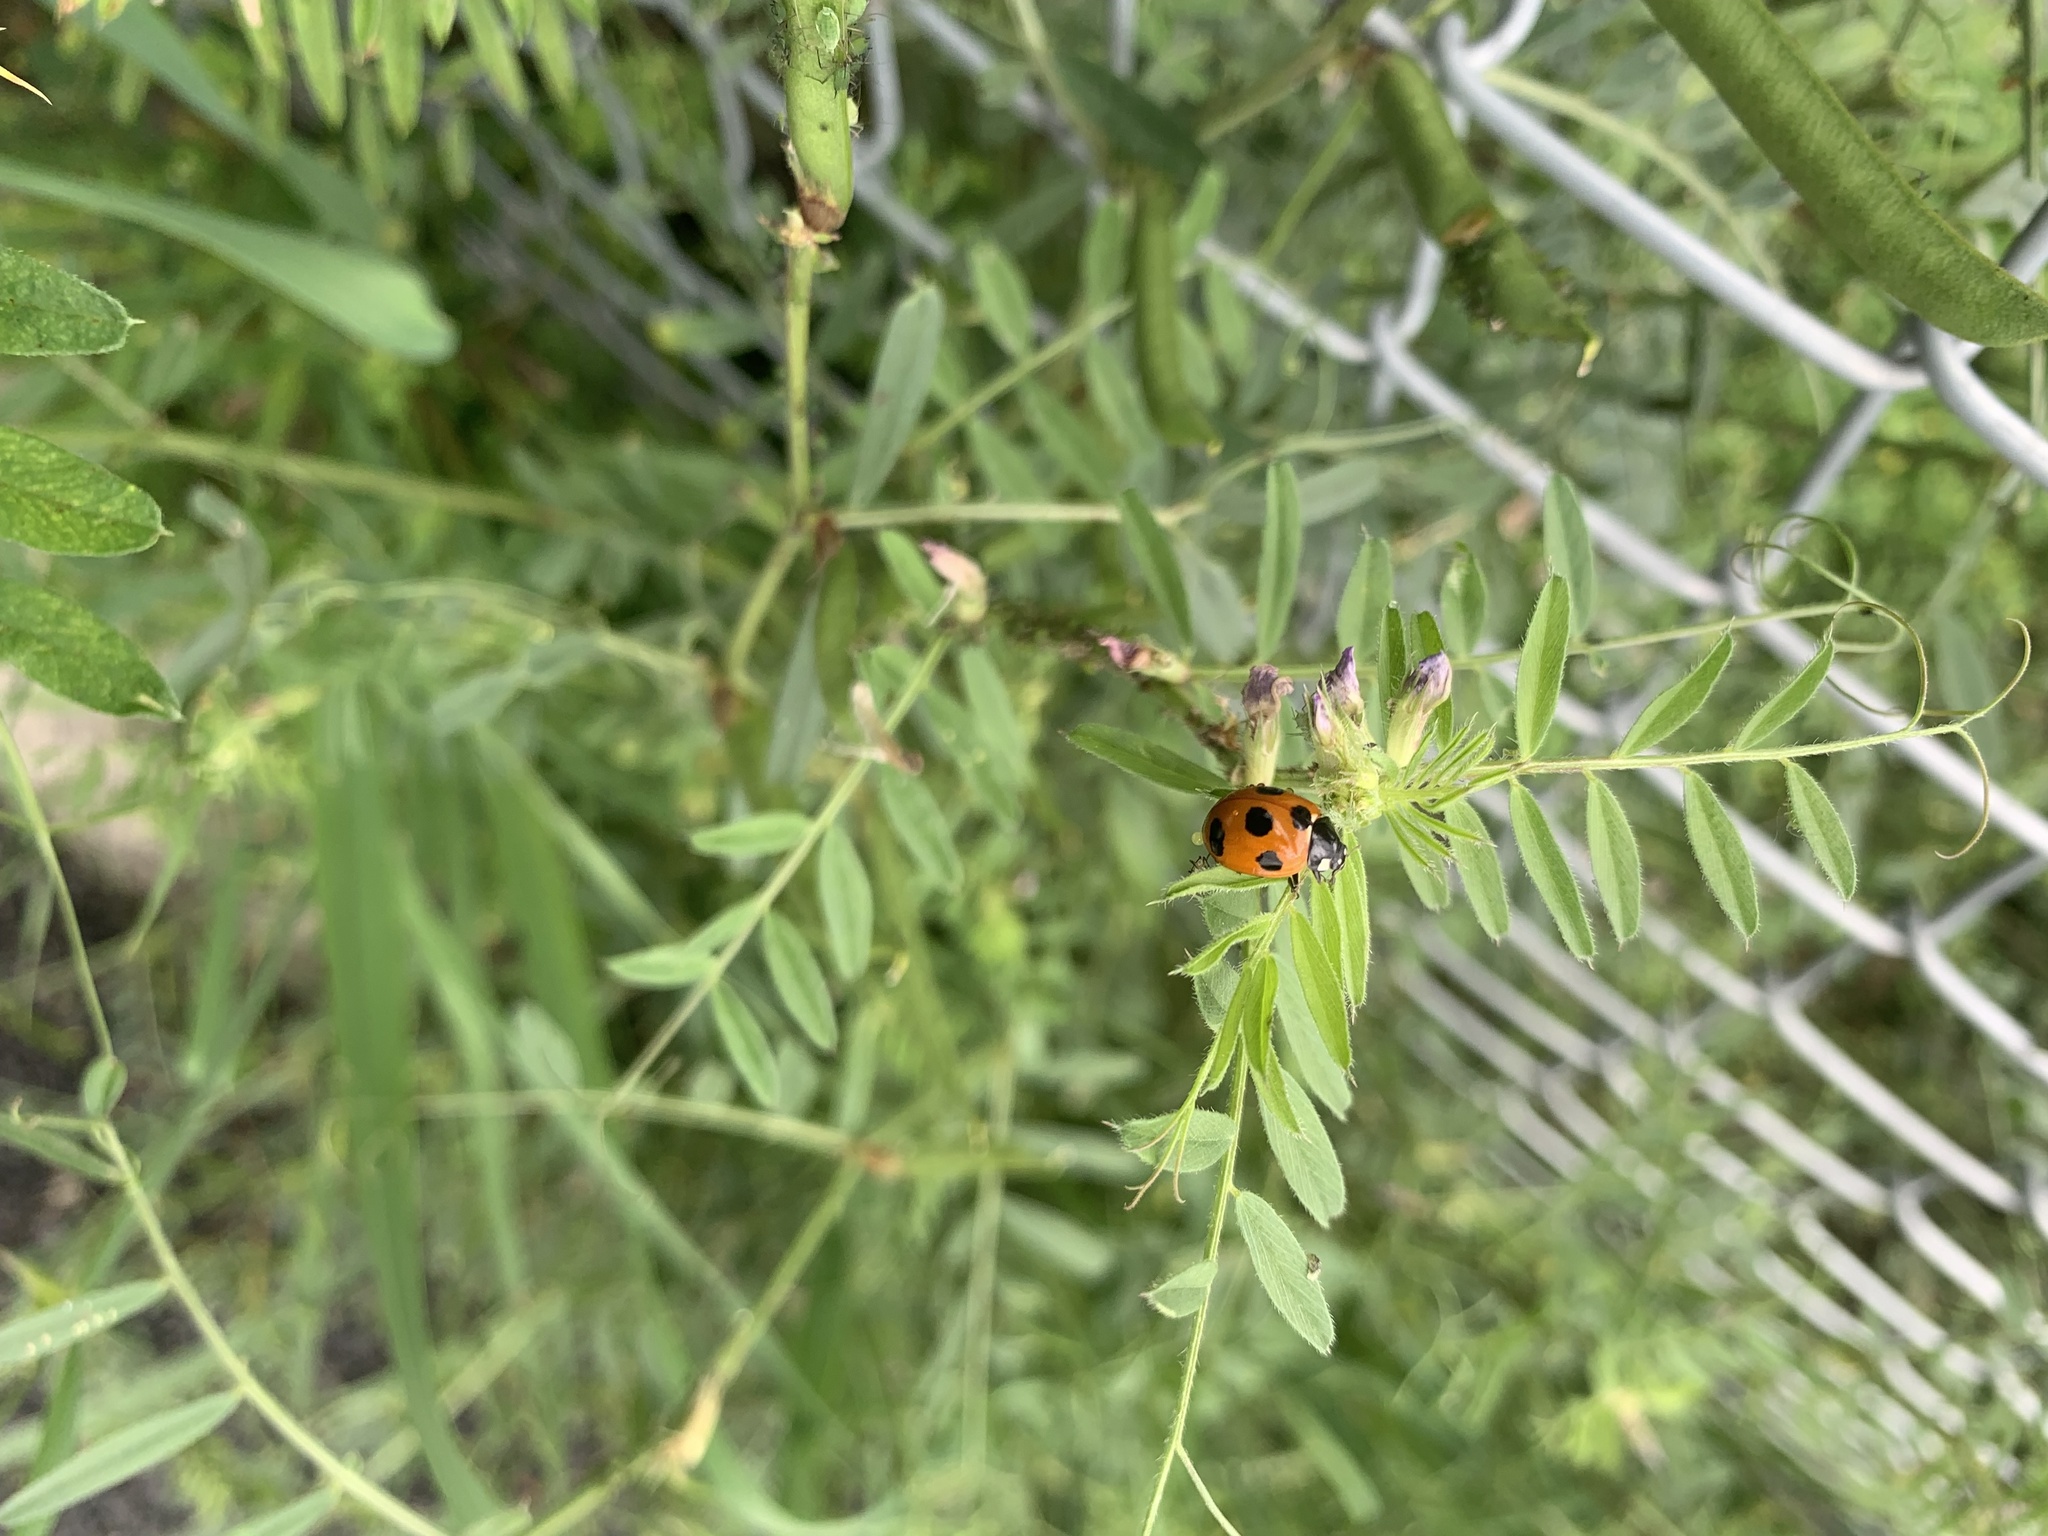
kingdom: Animalia
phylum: Arthropoda
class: Insecta
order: Coleoptera
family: Coccinellidae
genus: Coccinella
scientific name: Coccinella septempunctata
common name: Sevenspotted lady beetle
